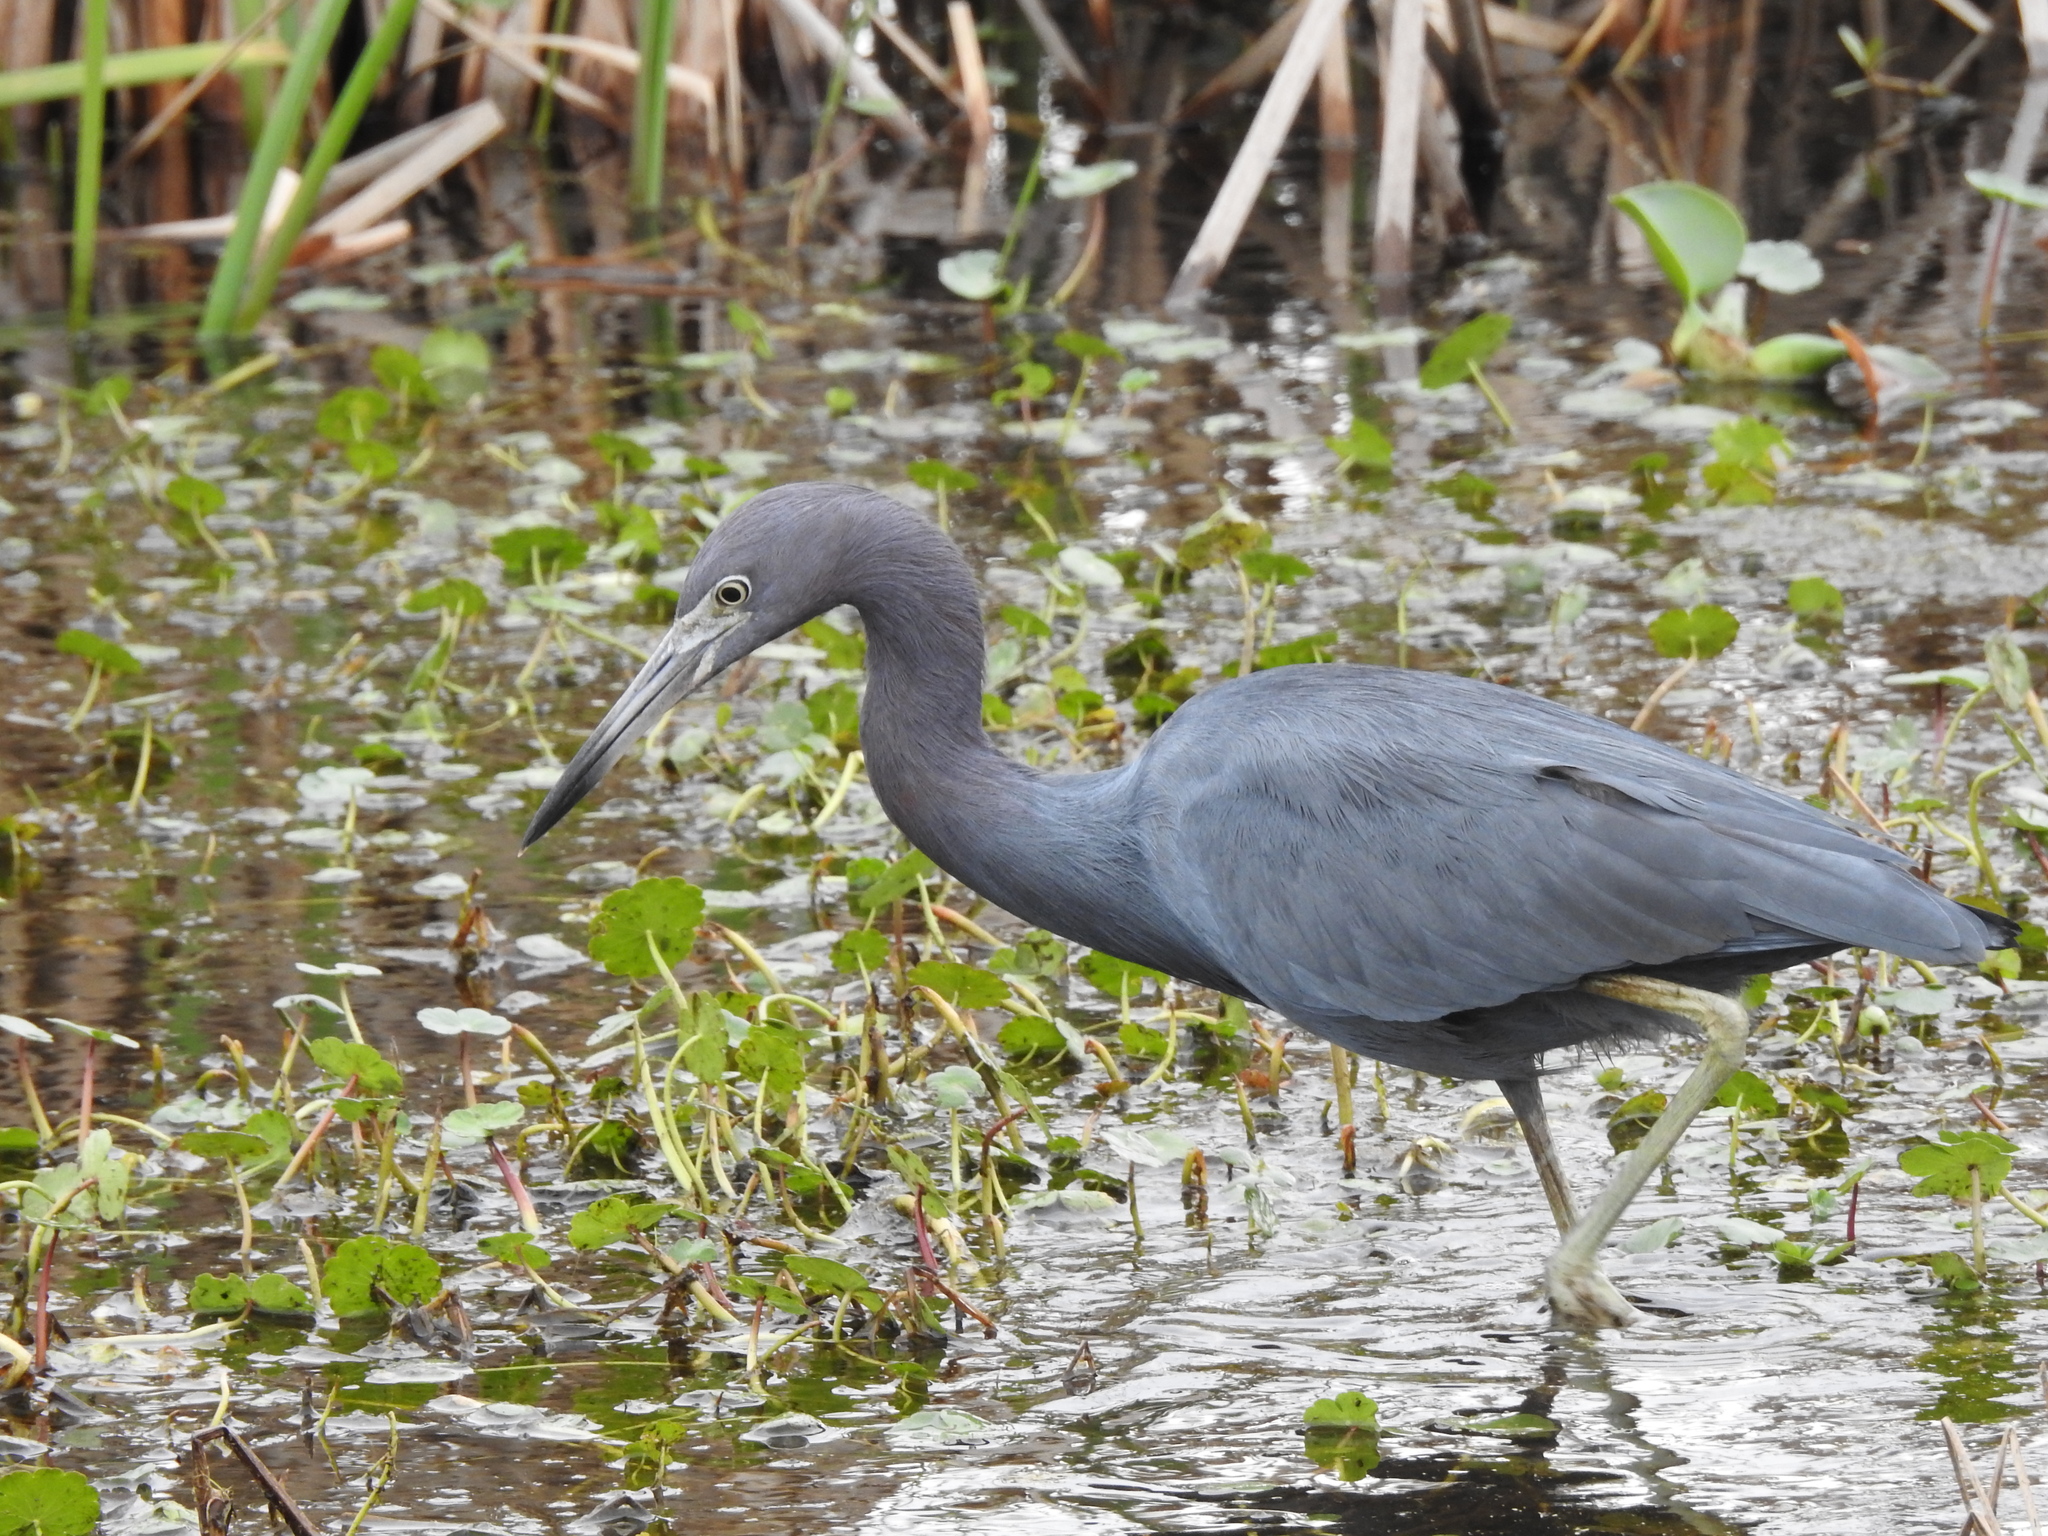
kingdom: Animalia
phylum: Chordata
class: Aves
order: Pelecaniformes
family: Ardeidae
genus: Egretta
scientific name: Egretta caerulea
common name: Little blue heron
